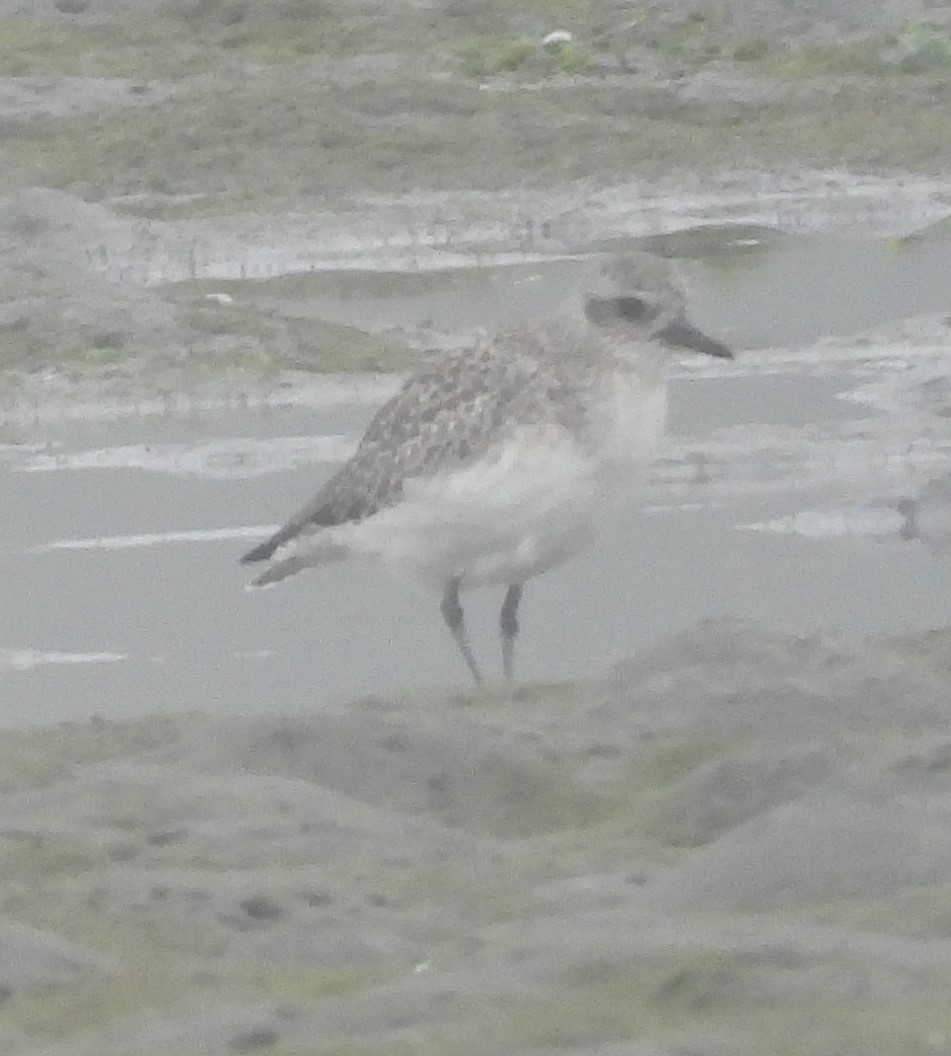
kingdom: Animalia
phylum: Chordata
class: Aves
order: Charadriiformes
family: Charadriidae
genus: Pluvialis
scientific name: Pluvialis squatarola
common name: Grey plover
